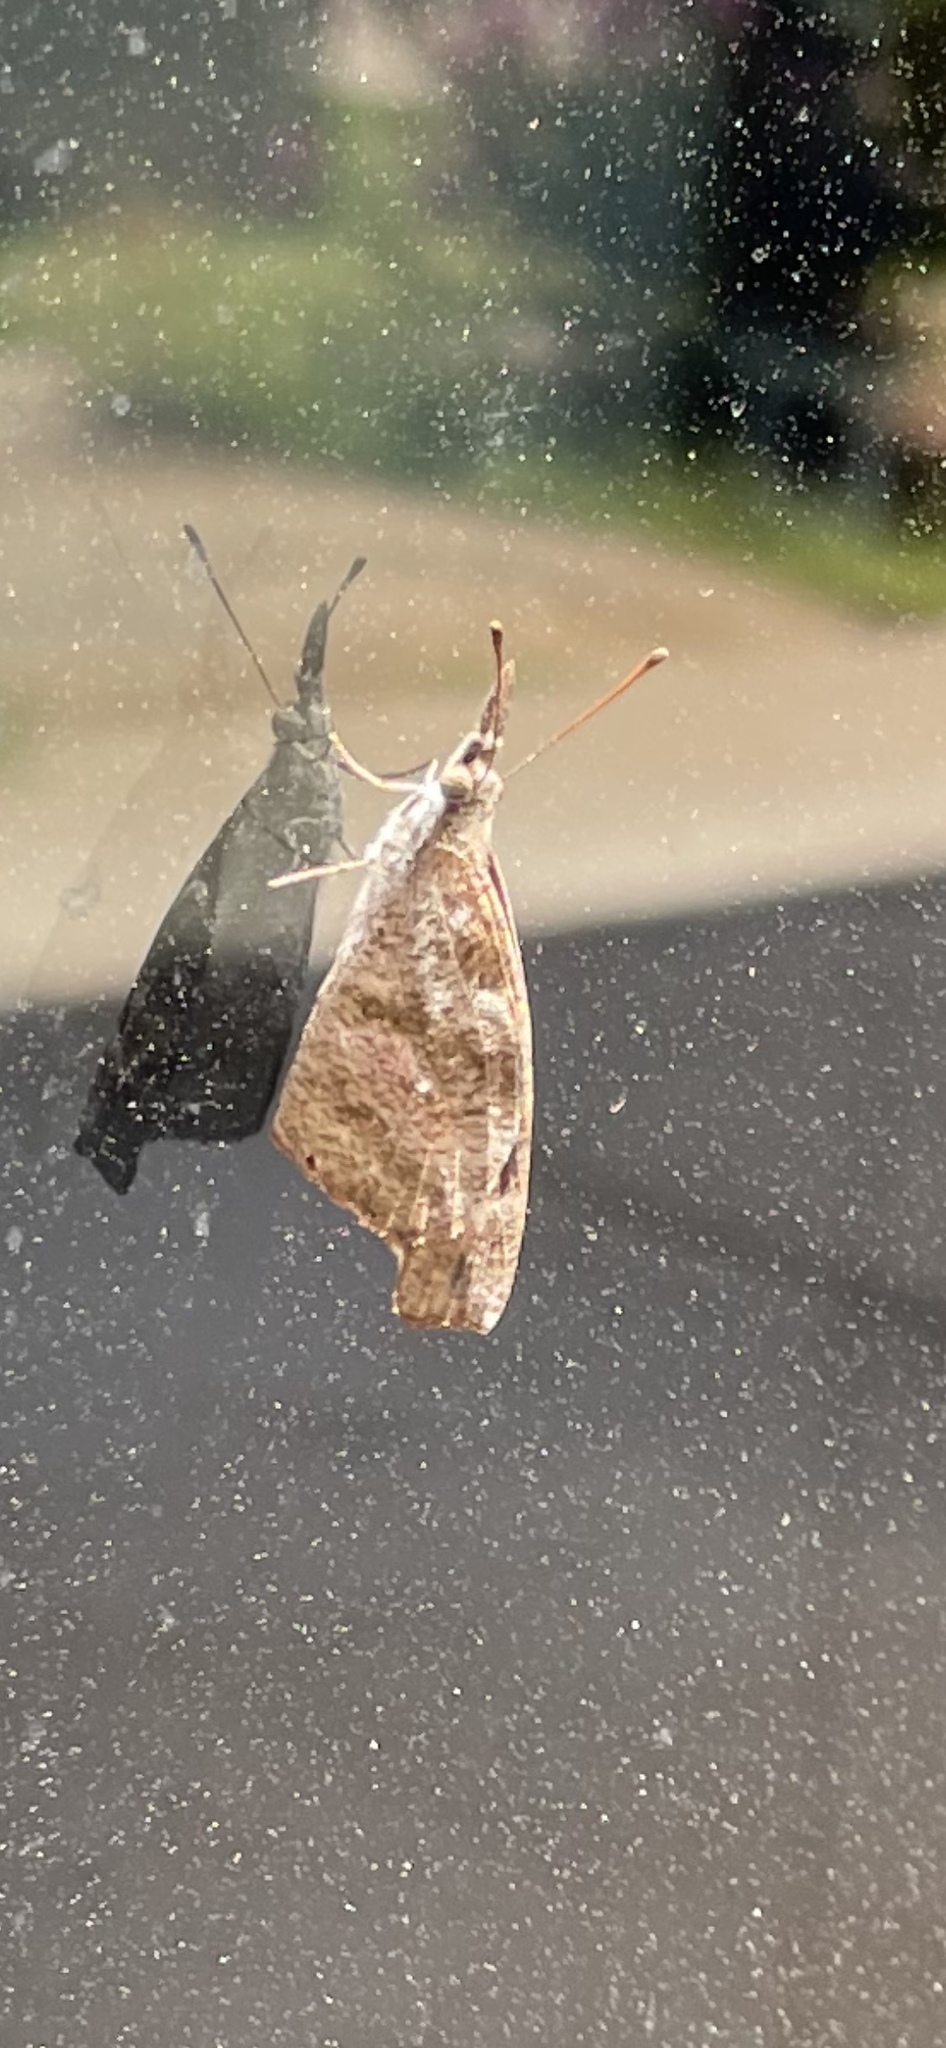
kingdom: Animalia
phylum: Arthropoda
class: Insecta
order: Lepidoptera
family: Nymphalidae
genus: Libytheana
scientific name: Libytheana carinenta
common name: American snout
